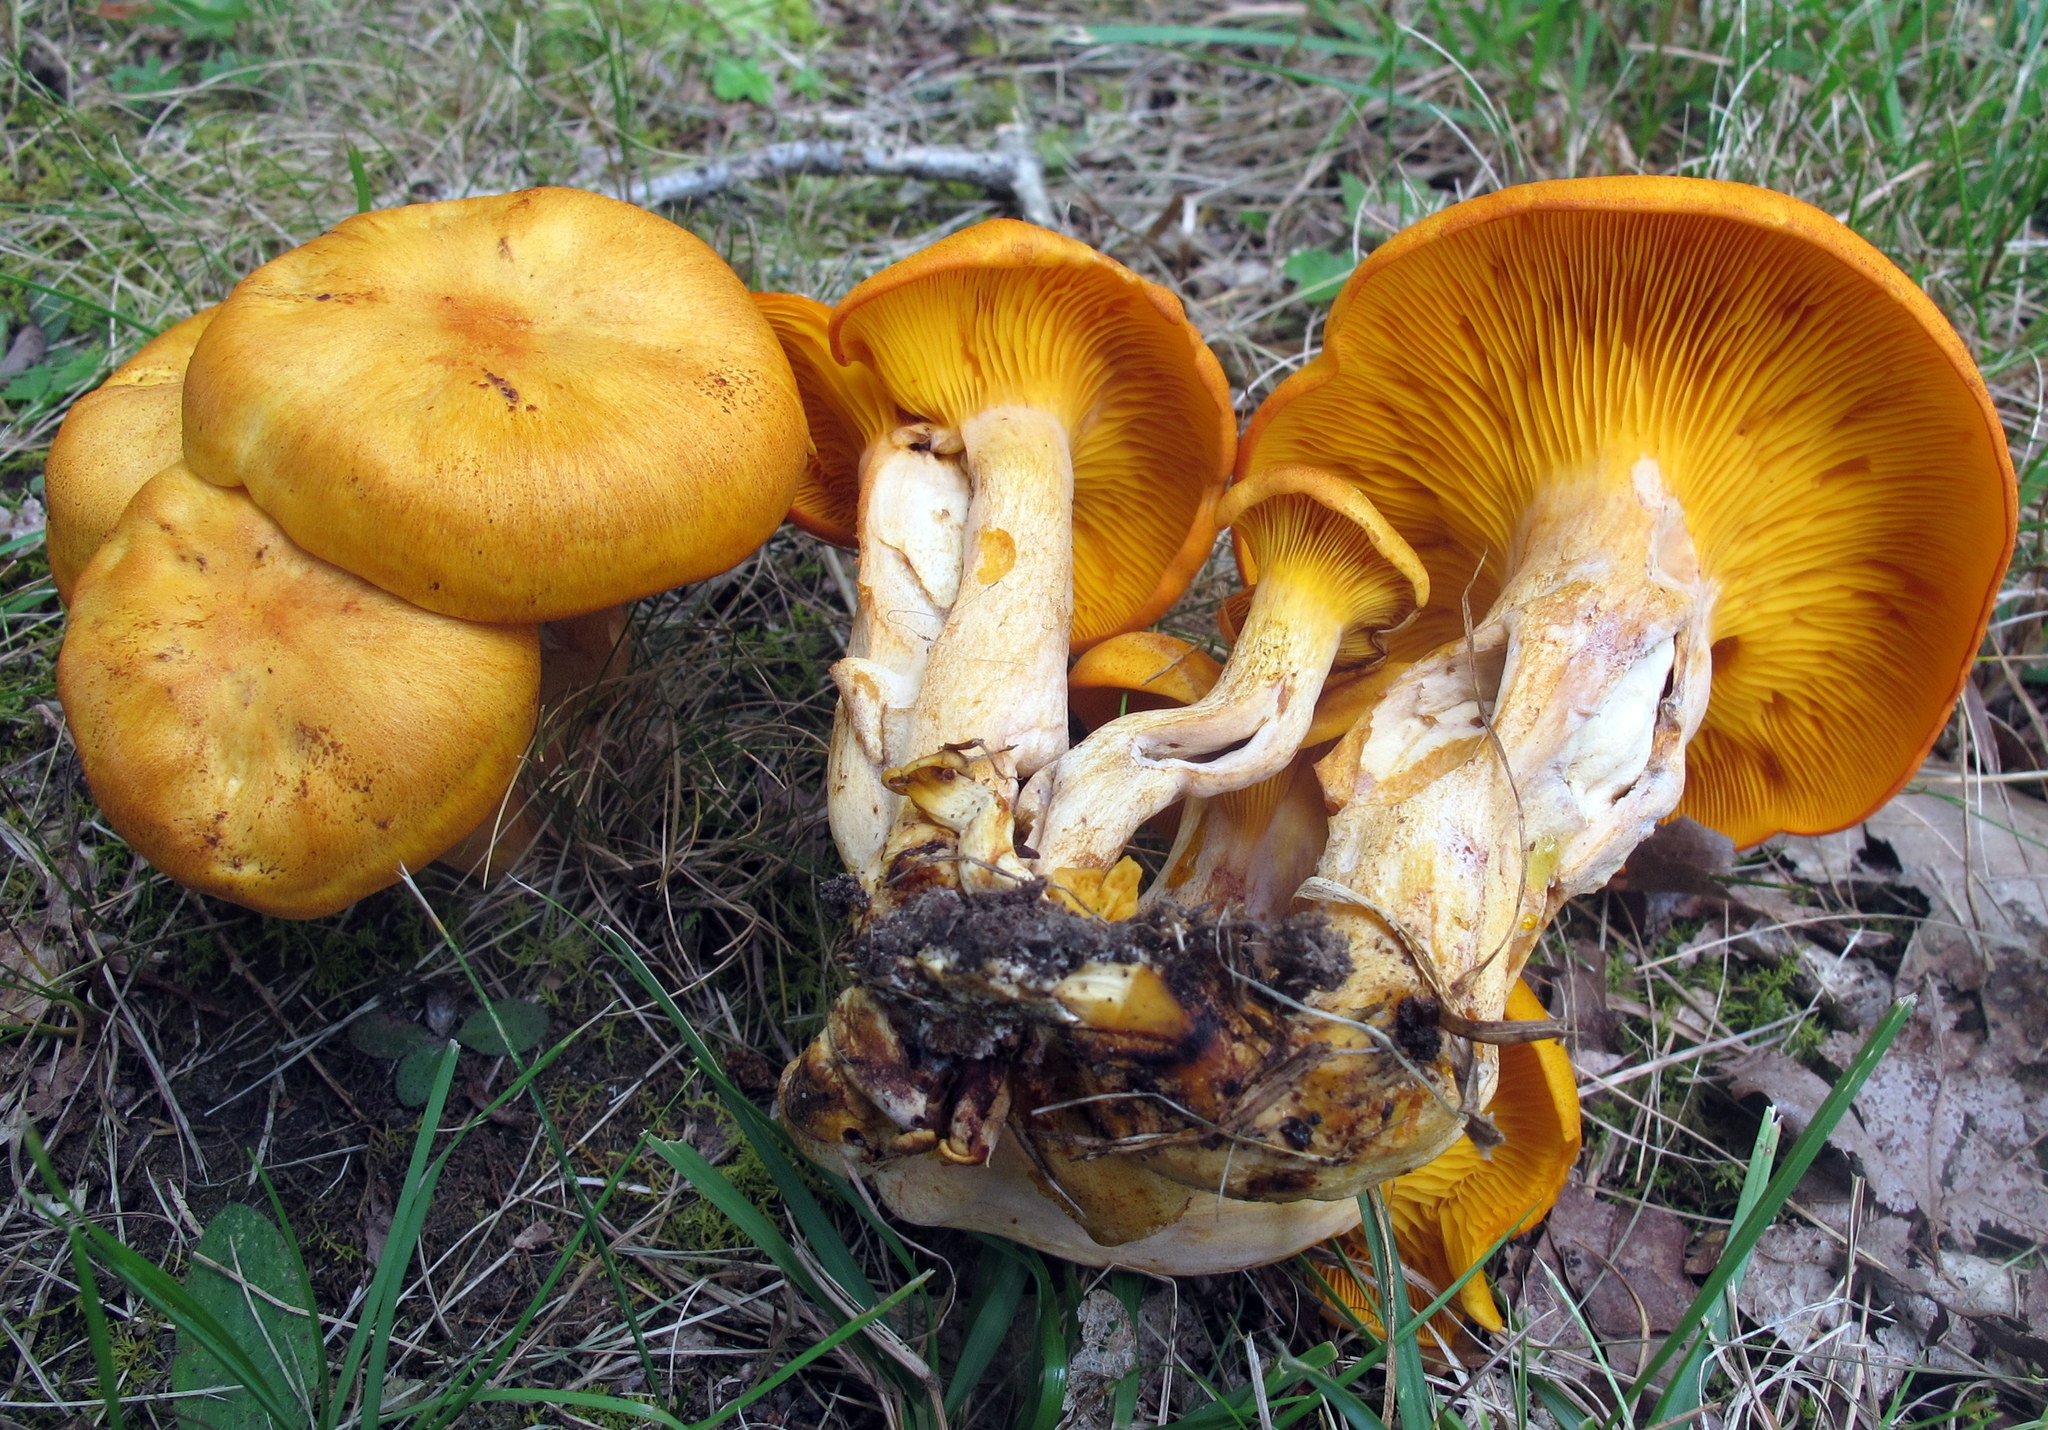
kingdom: Fungi
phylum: Basidiomycota
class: Agaricomycetes
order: Agaricales
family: Omphalotaceae
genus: Omphalotus
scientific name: Omphalotus illudens
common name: Jack o lantern
